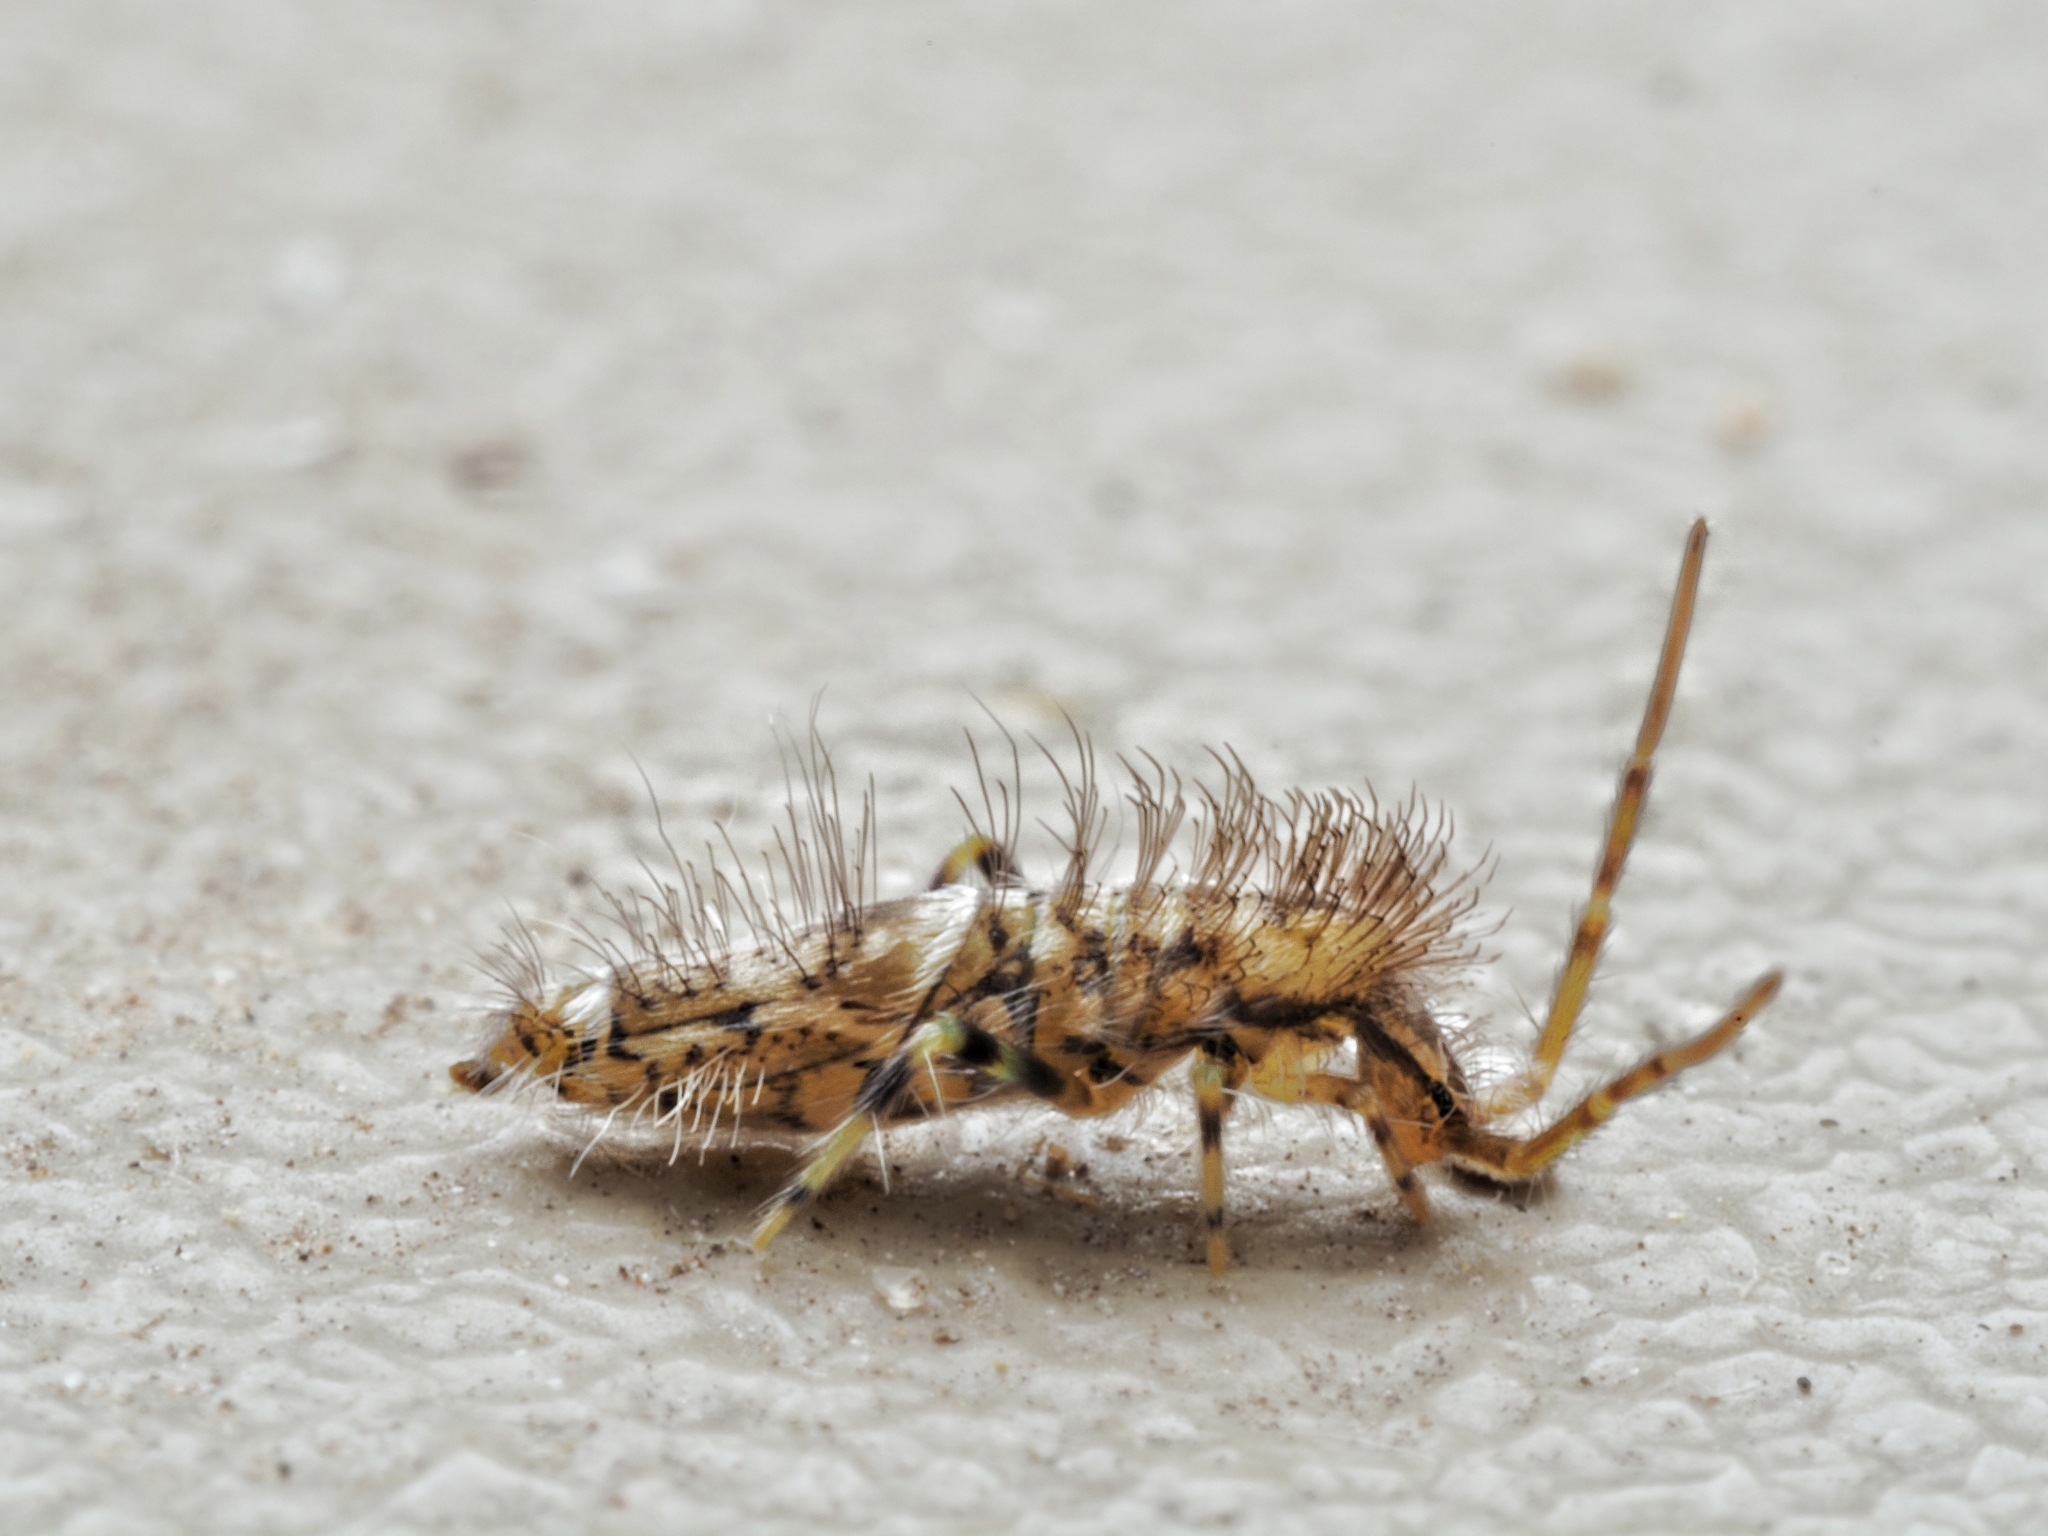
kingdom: Animalia
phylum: Arthropoda
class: Collembola
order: Entomobryomorpha
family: Entomobryidae
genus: Entomobrya
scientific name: Entomobrya dorsalis
